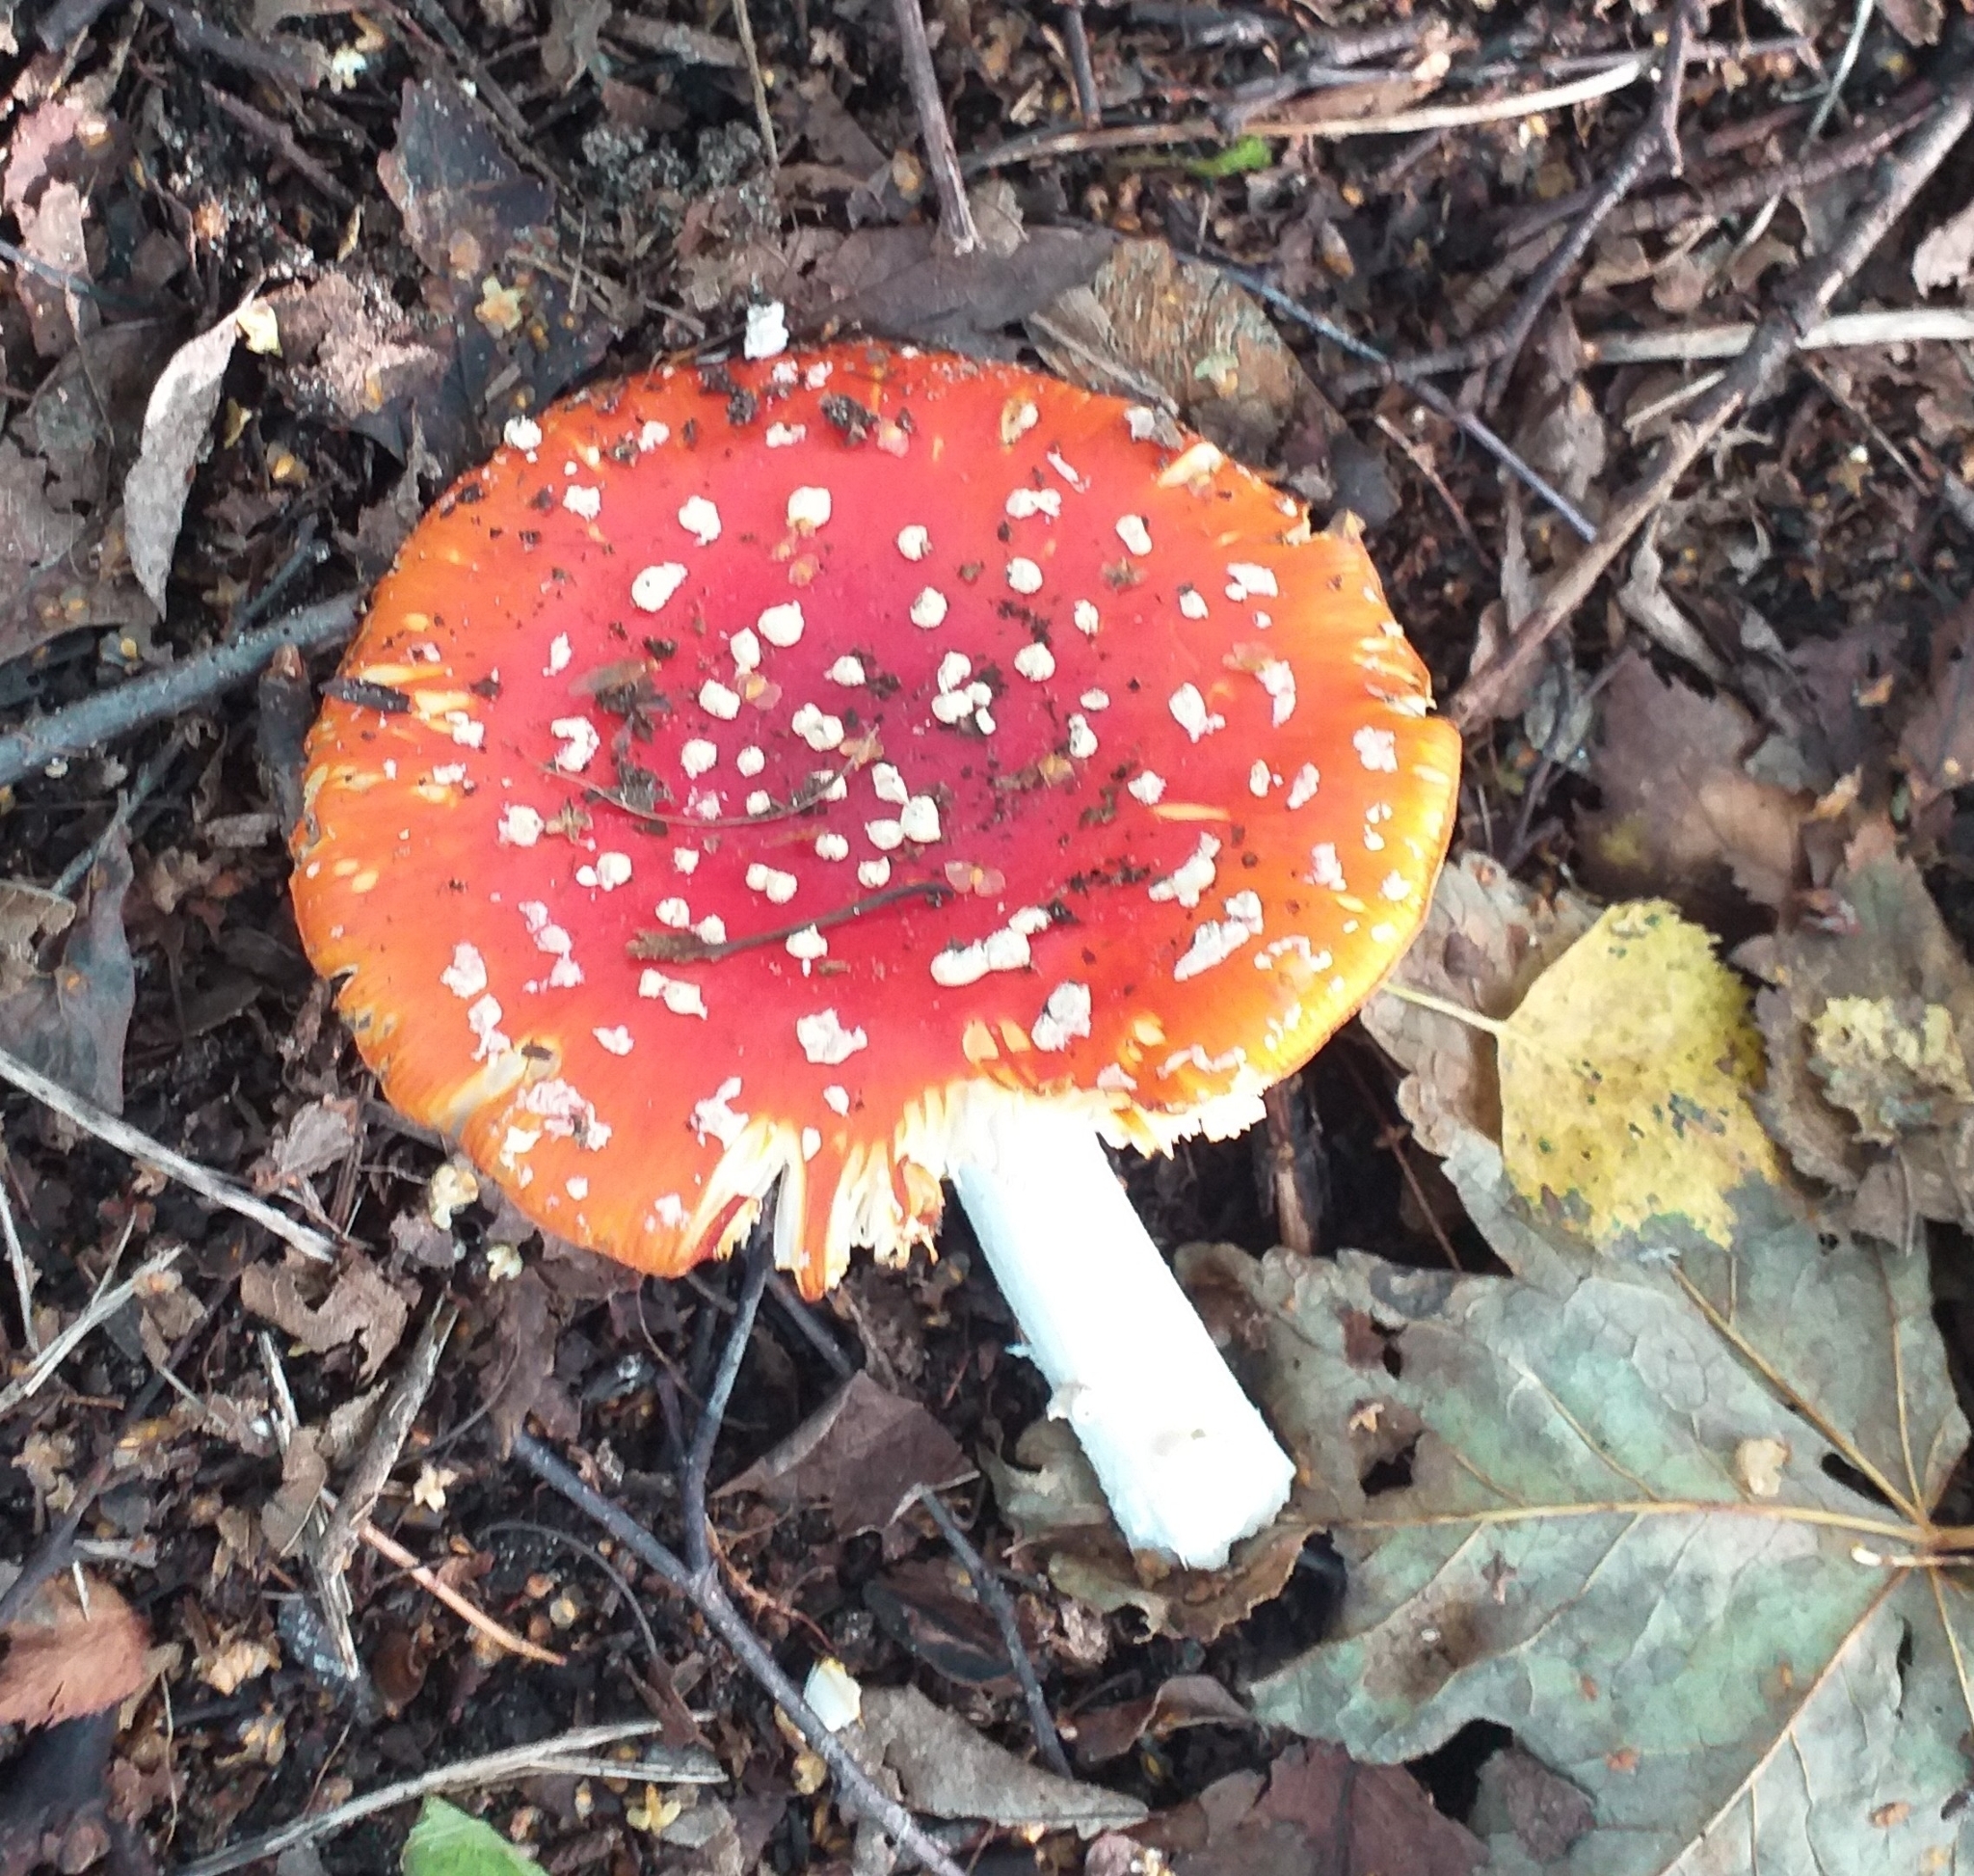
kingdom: Fungi
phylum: Basidiomycota
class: Agaricomycetes
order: Agaricales
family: Amanitaceae
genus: Amanita
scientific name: Amanita muscaria
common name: Fly agaric
